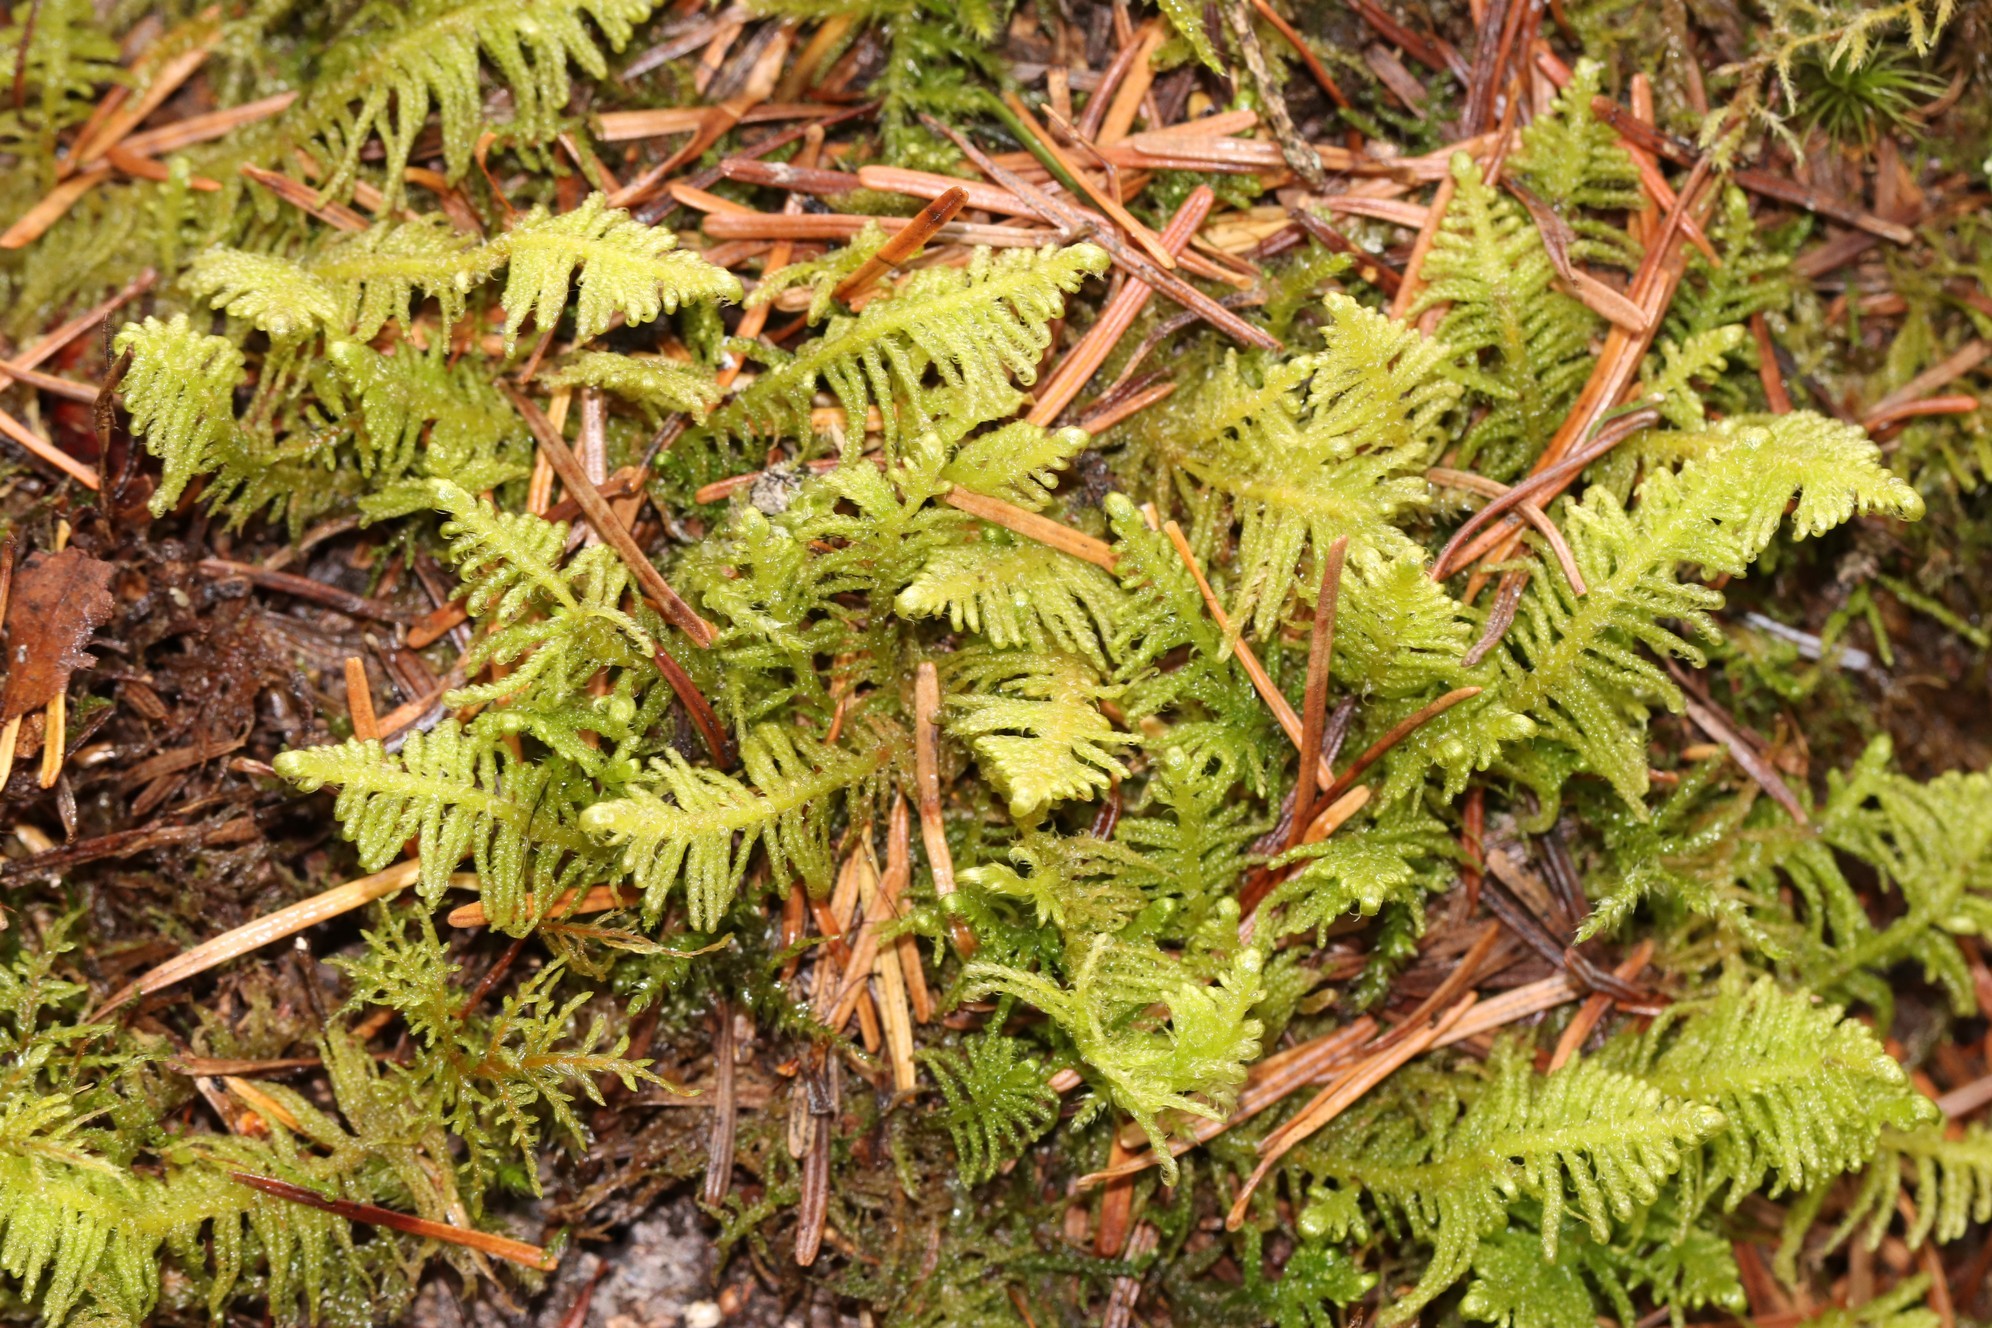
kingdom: Plantae
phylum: Bryophyta
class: Bryopsida
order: Hypnales
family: Pylaisiaceae
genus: Ptilium
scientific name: Ptilium crista-castrensis
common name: Knight's plume moss
